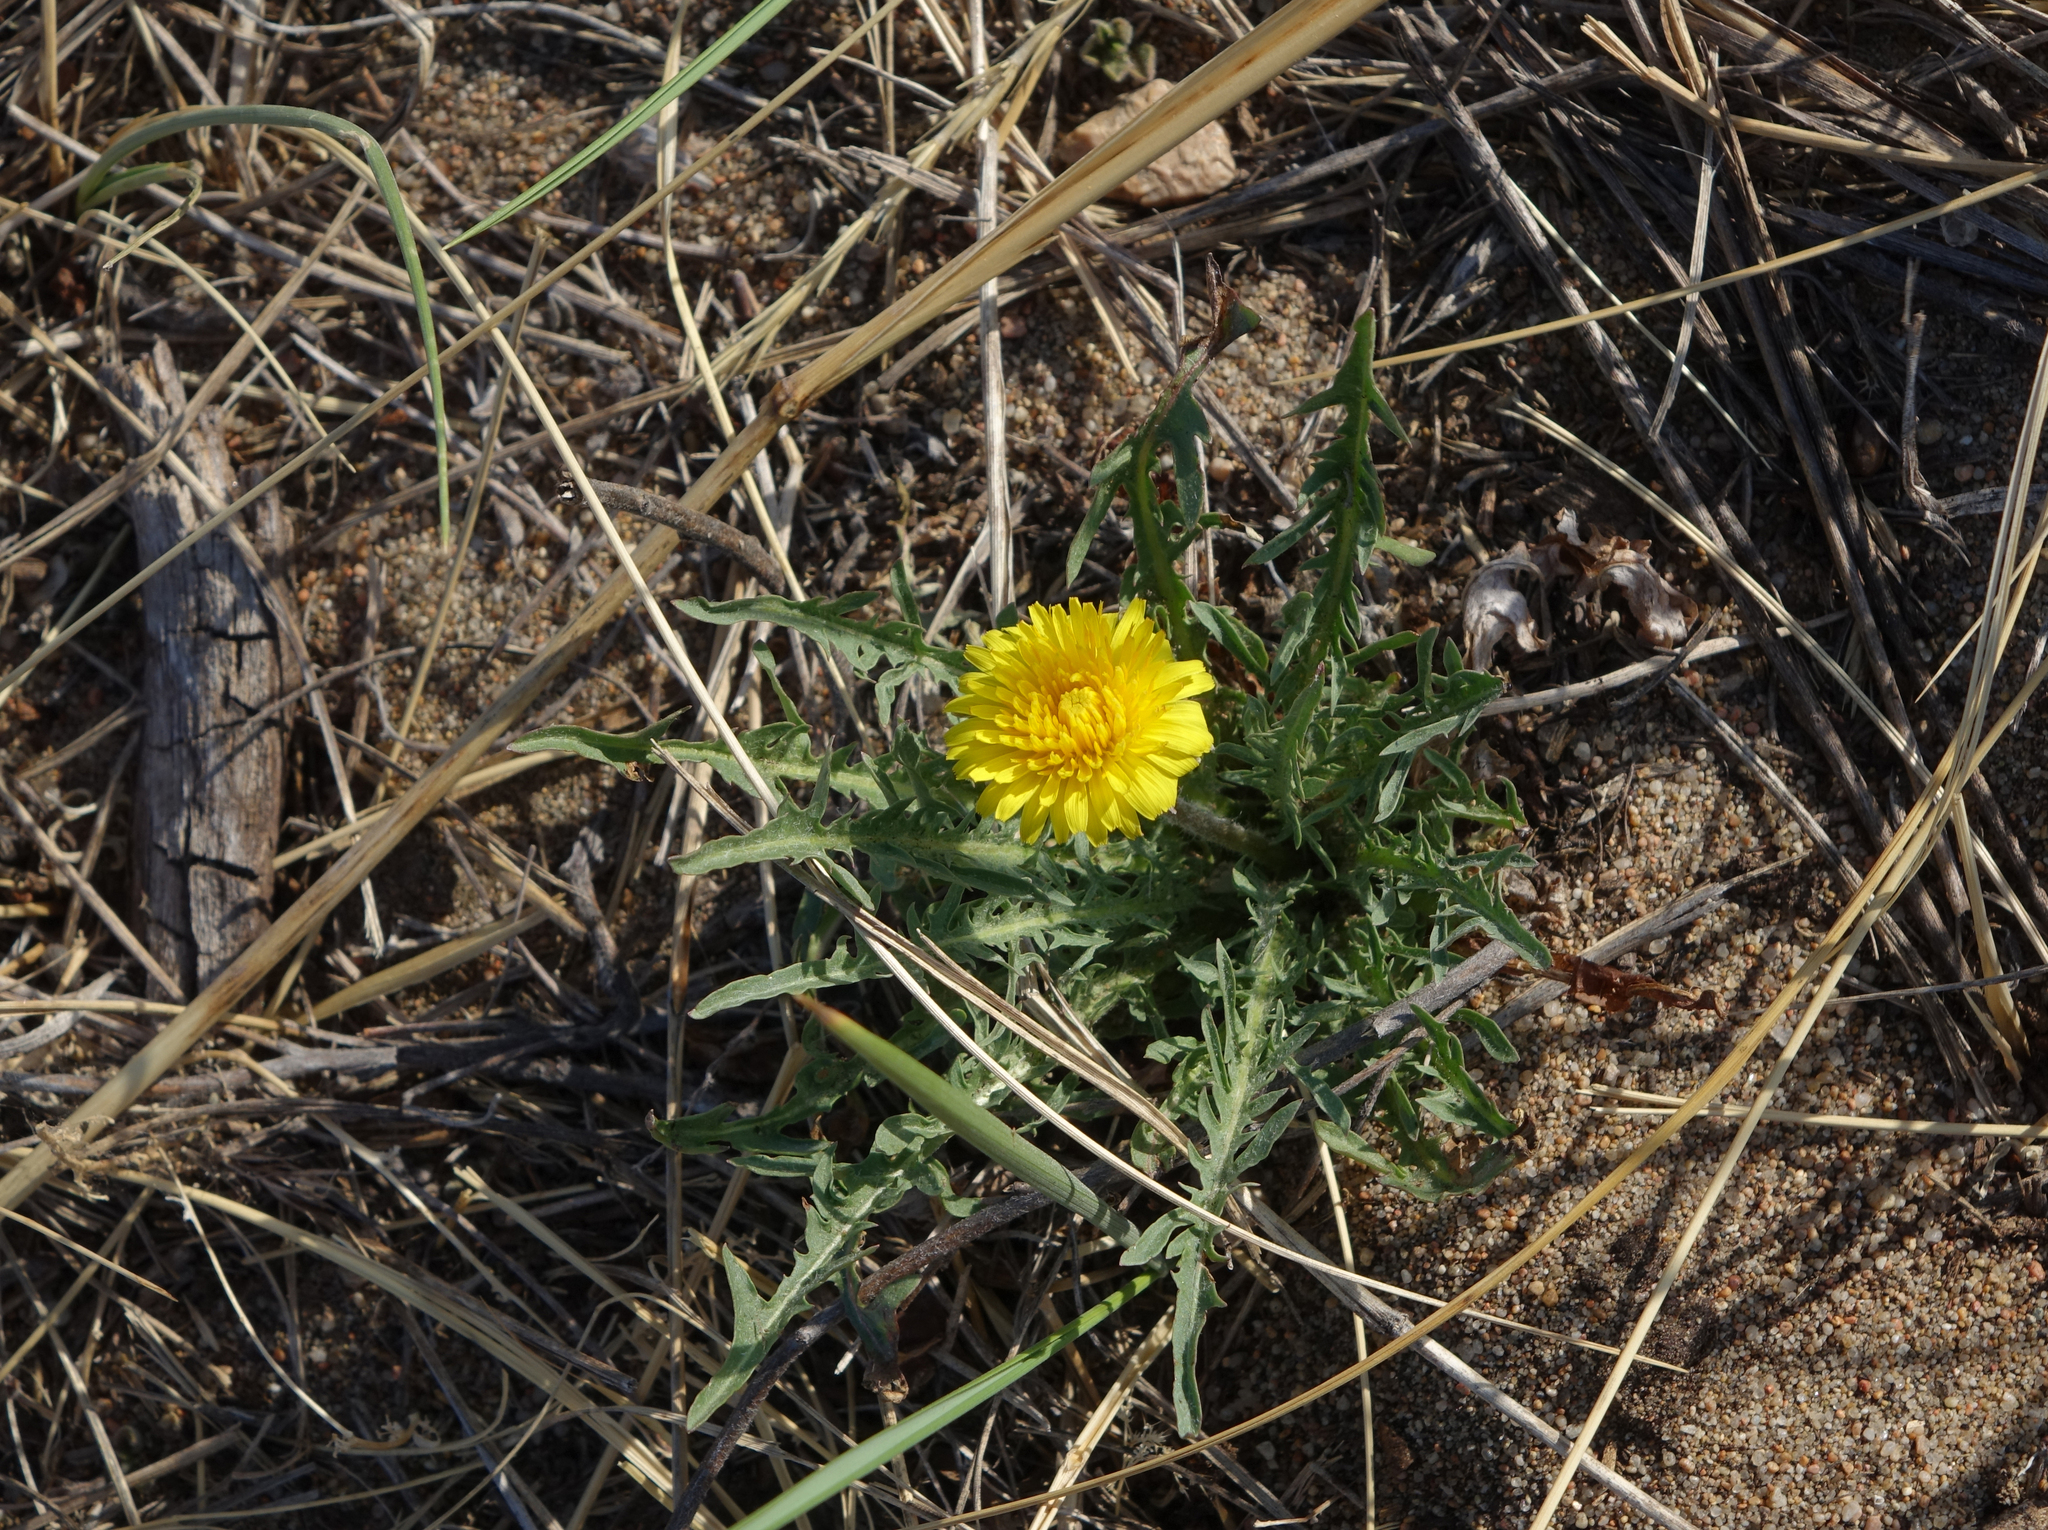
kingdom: Plantae
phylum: Tracheophyta
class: Magnoliopsida
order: Asterales
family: Asteraceae
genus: Taraxacum
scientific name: Taraxacum officinale
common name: Common dandelion
